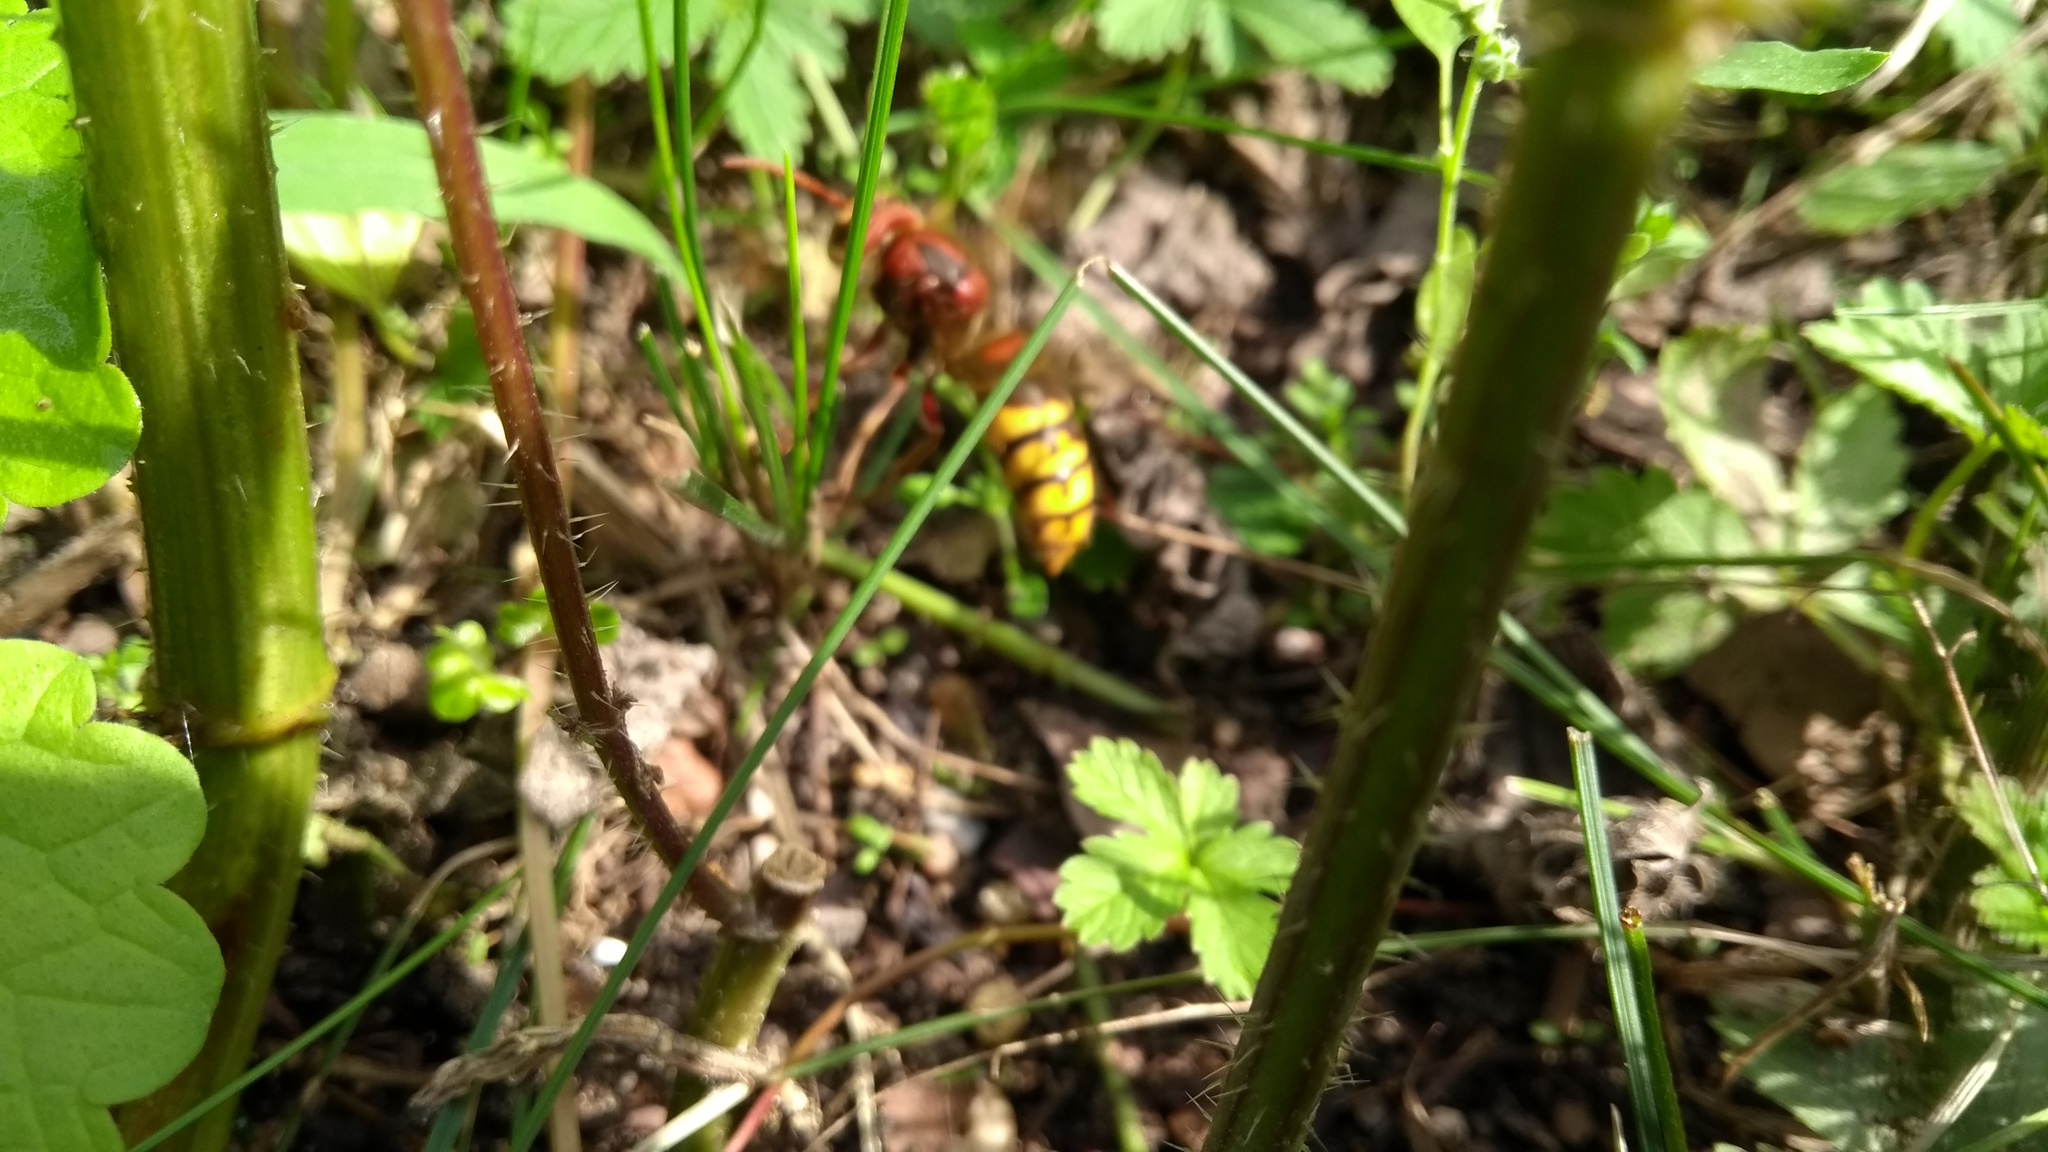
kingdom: Animalia
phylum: Arthropoda
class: Insecta
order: Hymenoptera
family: Vespidae
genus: Vespa
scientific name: Vespa crabro
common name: Hornet
